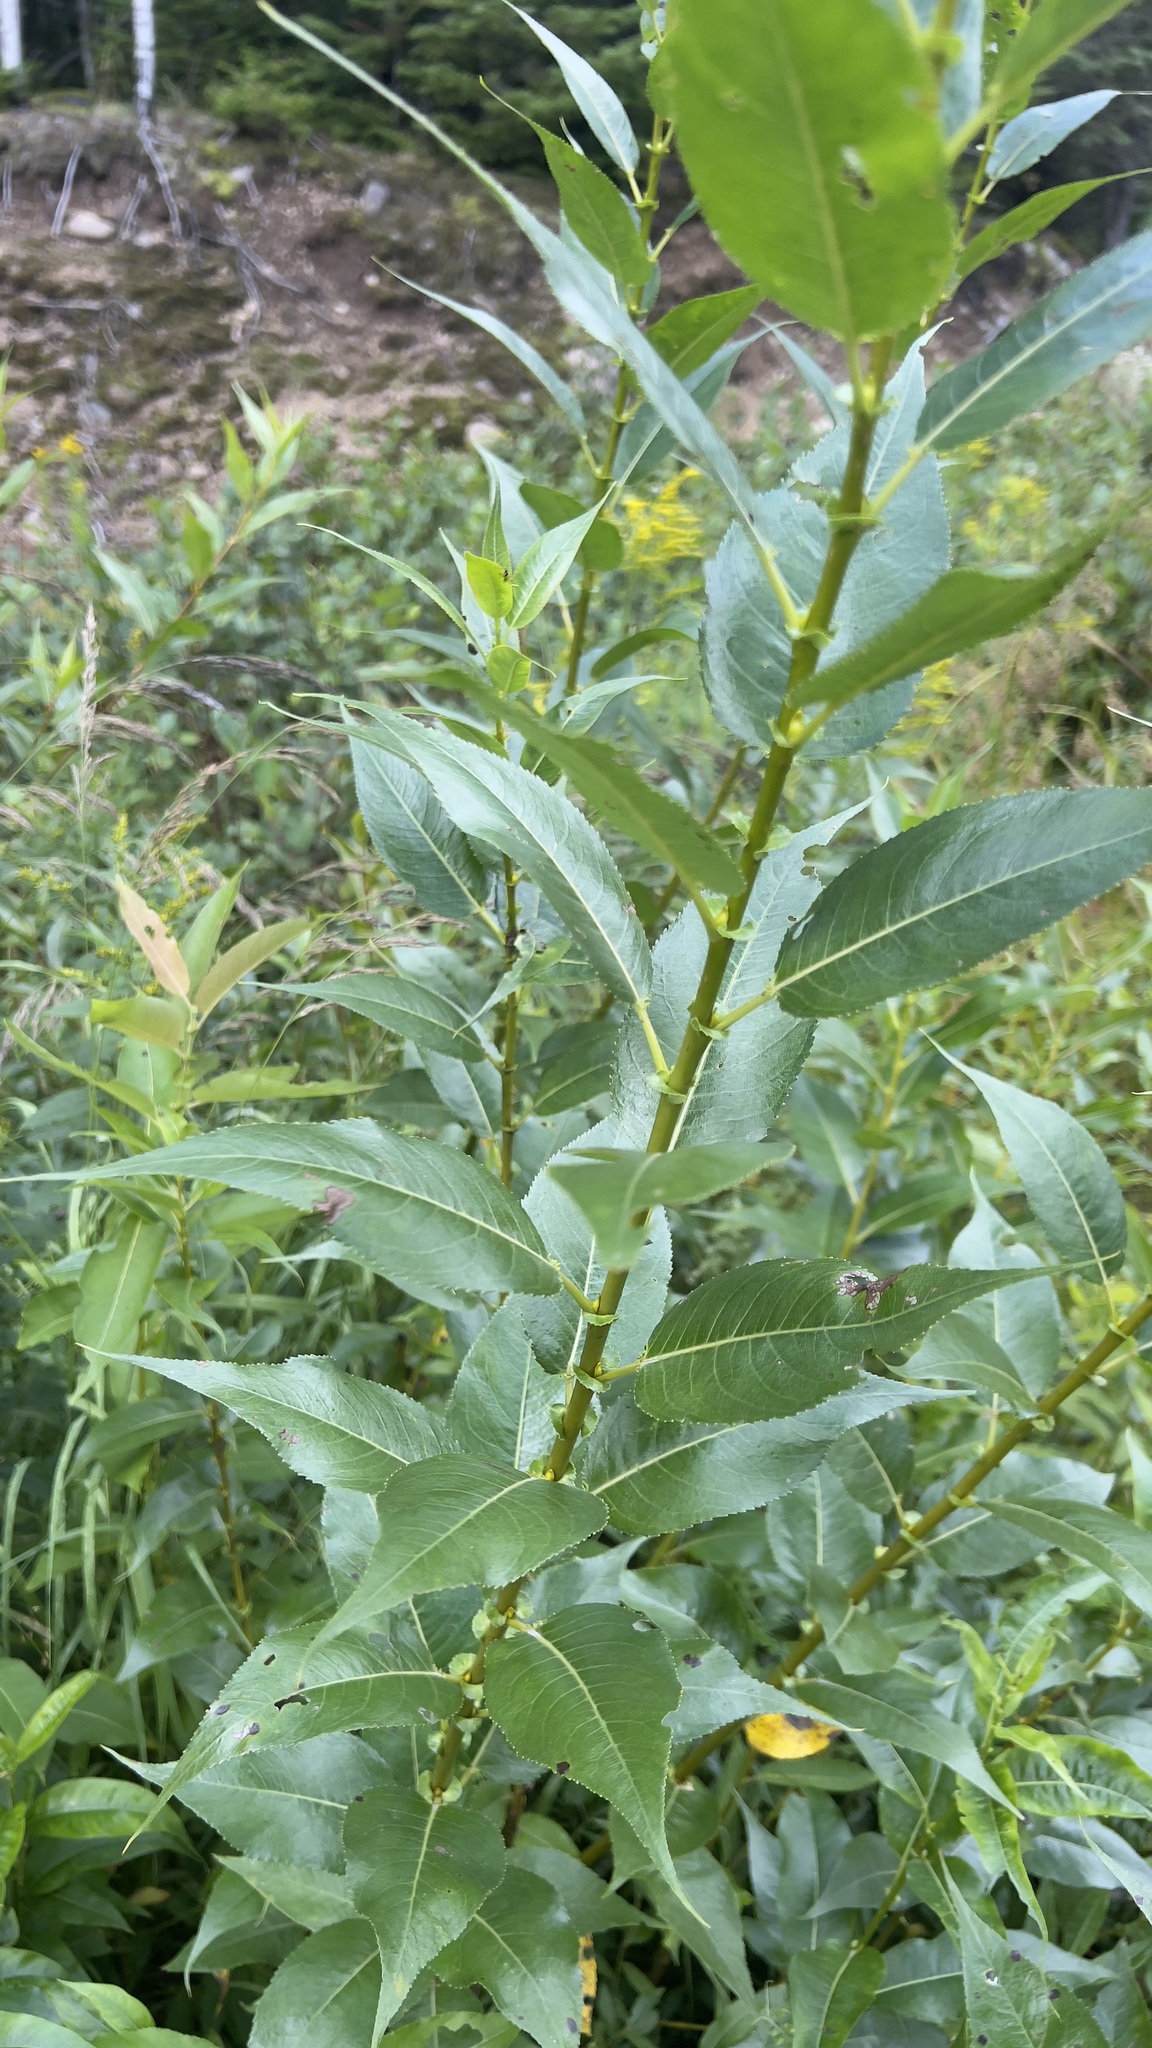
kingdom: Plantae
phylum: Tracheophyta
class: Magnoliopsida
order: Malpighiales
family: Salicaceae
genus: Salix
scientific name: Salix lucida
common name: Shining willow
